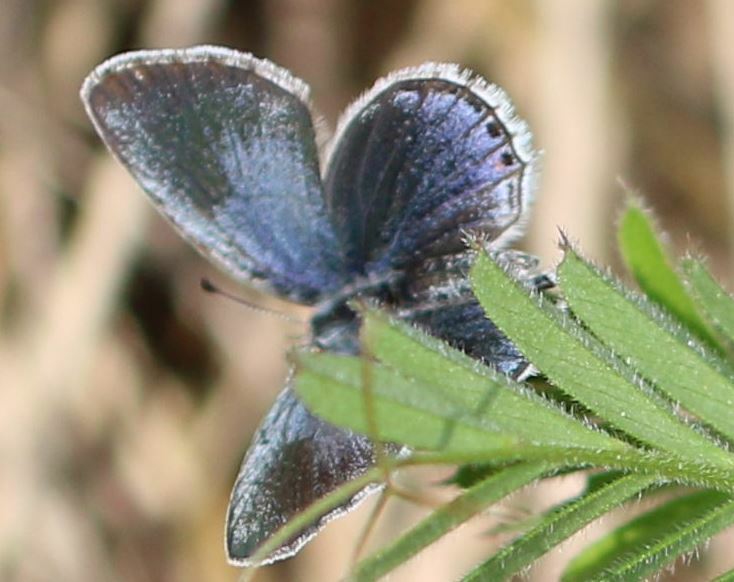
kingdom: Animalia
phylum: Arthropoda
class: Insecta
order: Lepidoptera
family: Lycaenidae
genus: Elkalyce
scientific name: Elkalyce argiades
